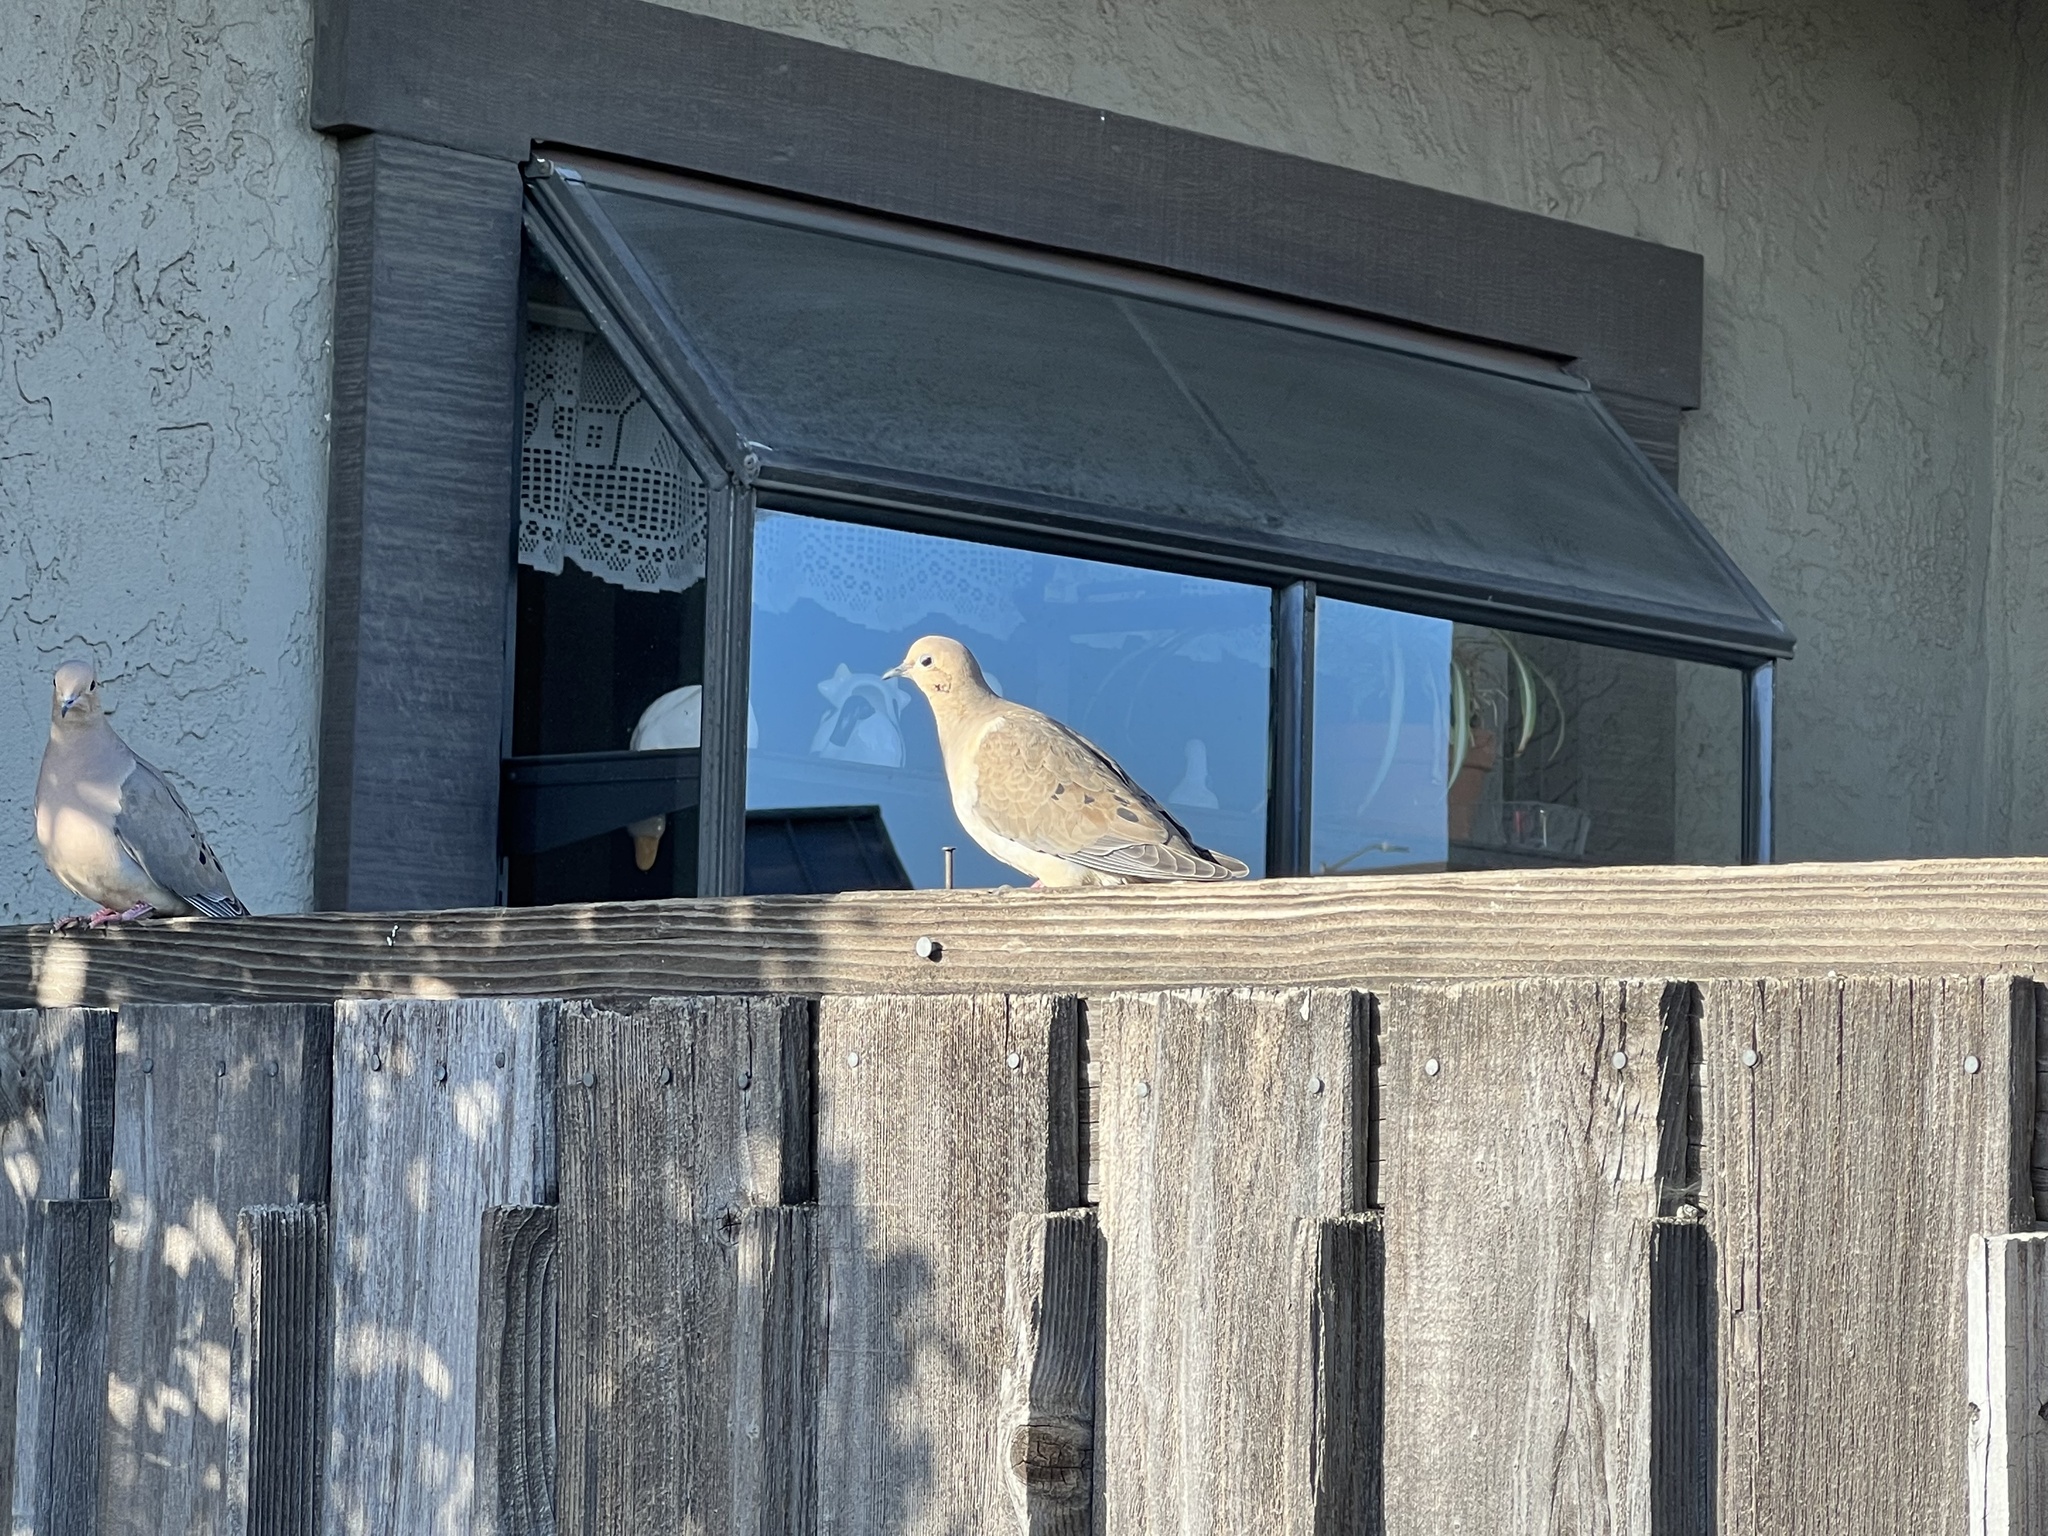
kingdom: Animalia
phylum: Chordata
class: Aves
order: Columbiformes
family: Columbidae
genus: Zenaida
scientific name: Zenaida macroura
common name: Mourning dove
